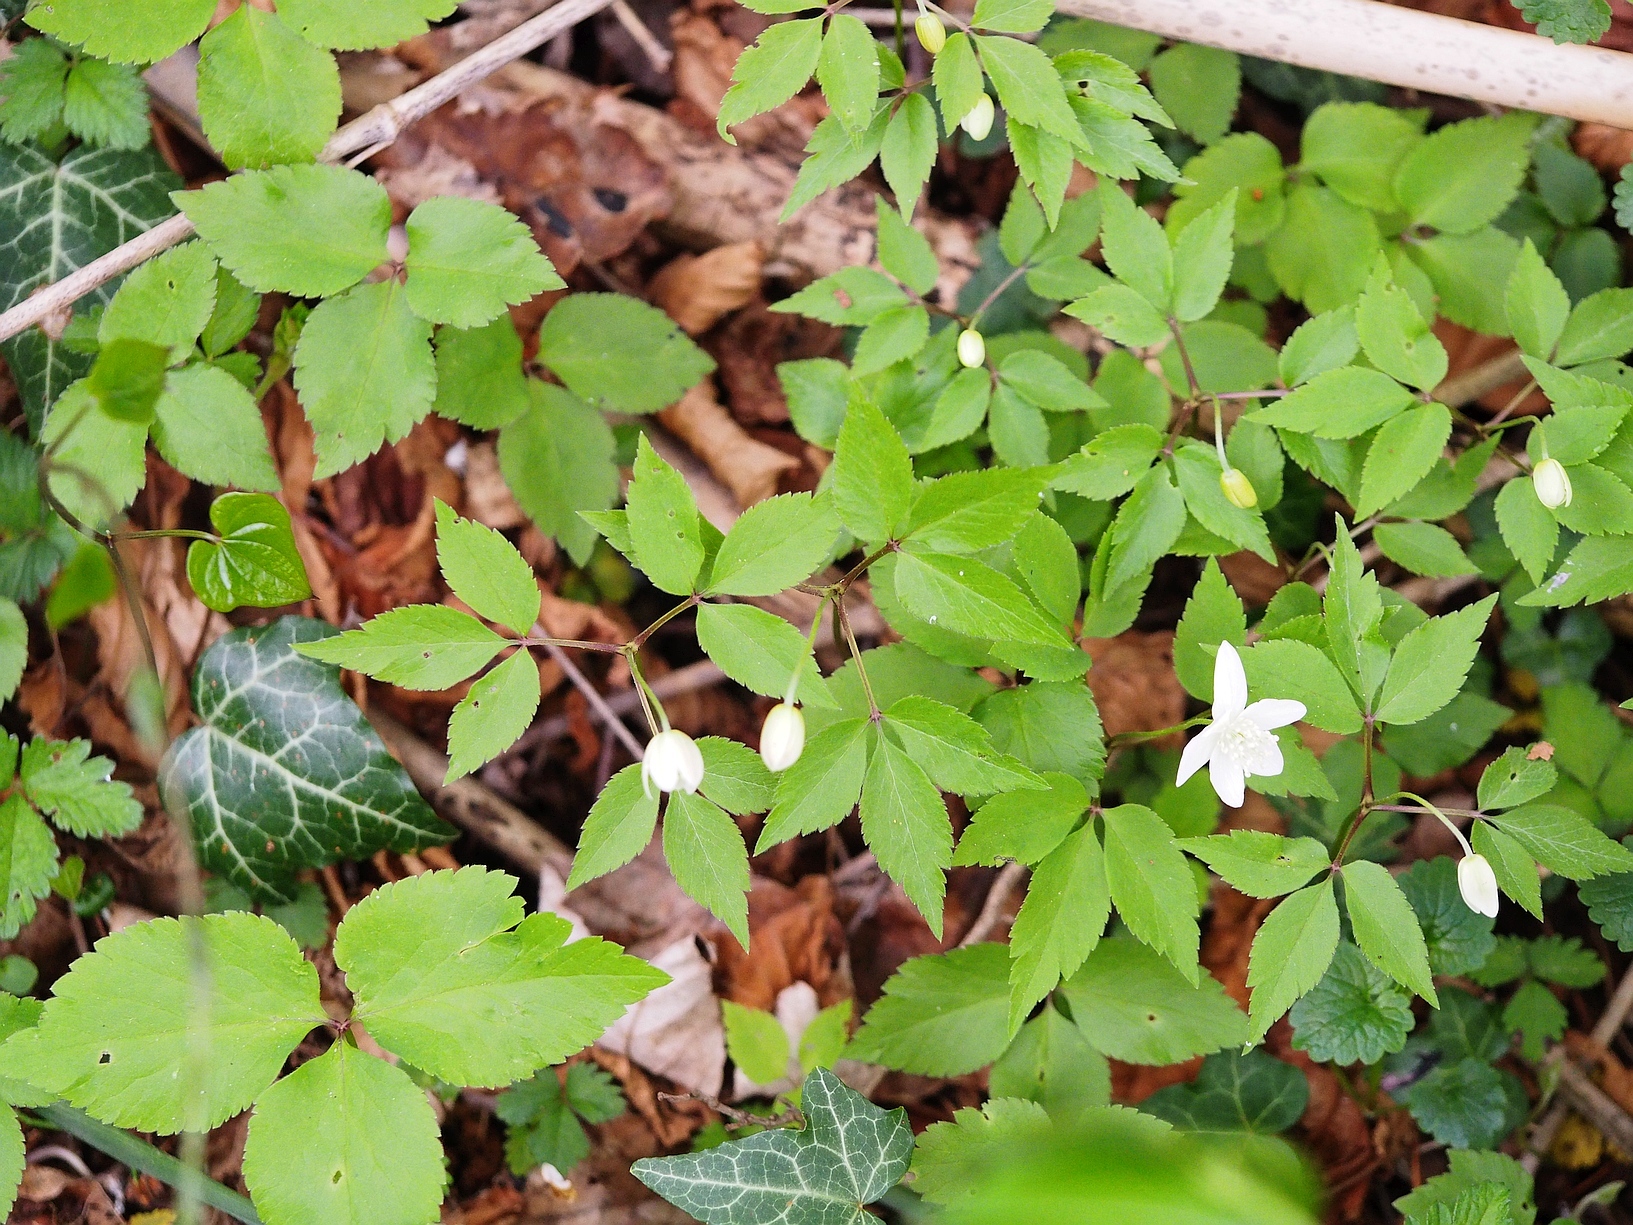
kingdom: Plantae
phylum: Tracheophyta
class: Magnoliopsida
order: Ranunculales
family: Ranunculaceae
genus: Anemone
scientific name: Anemone trifolia
